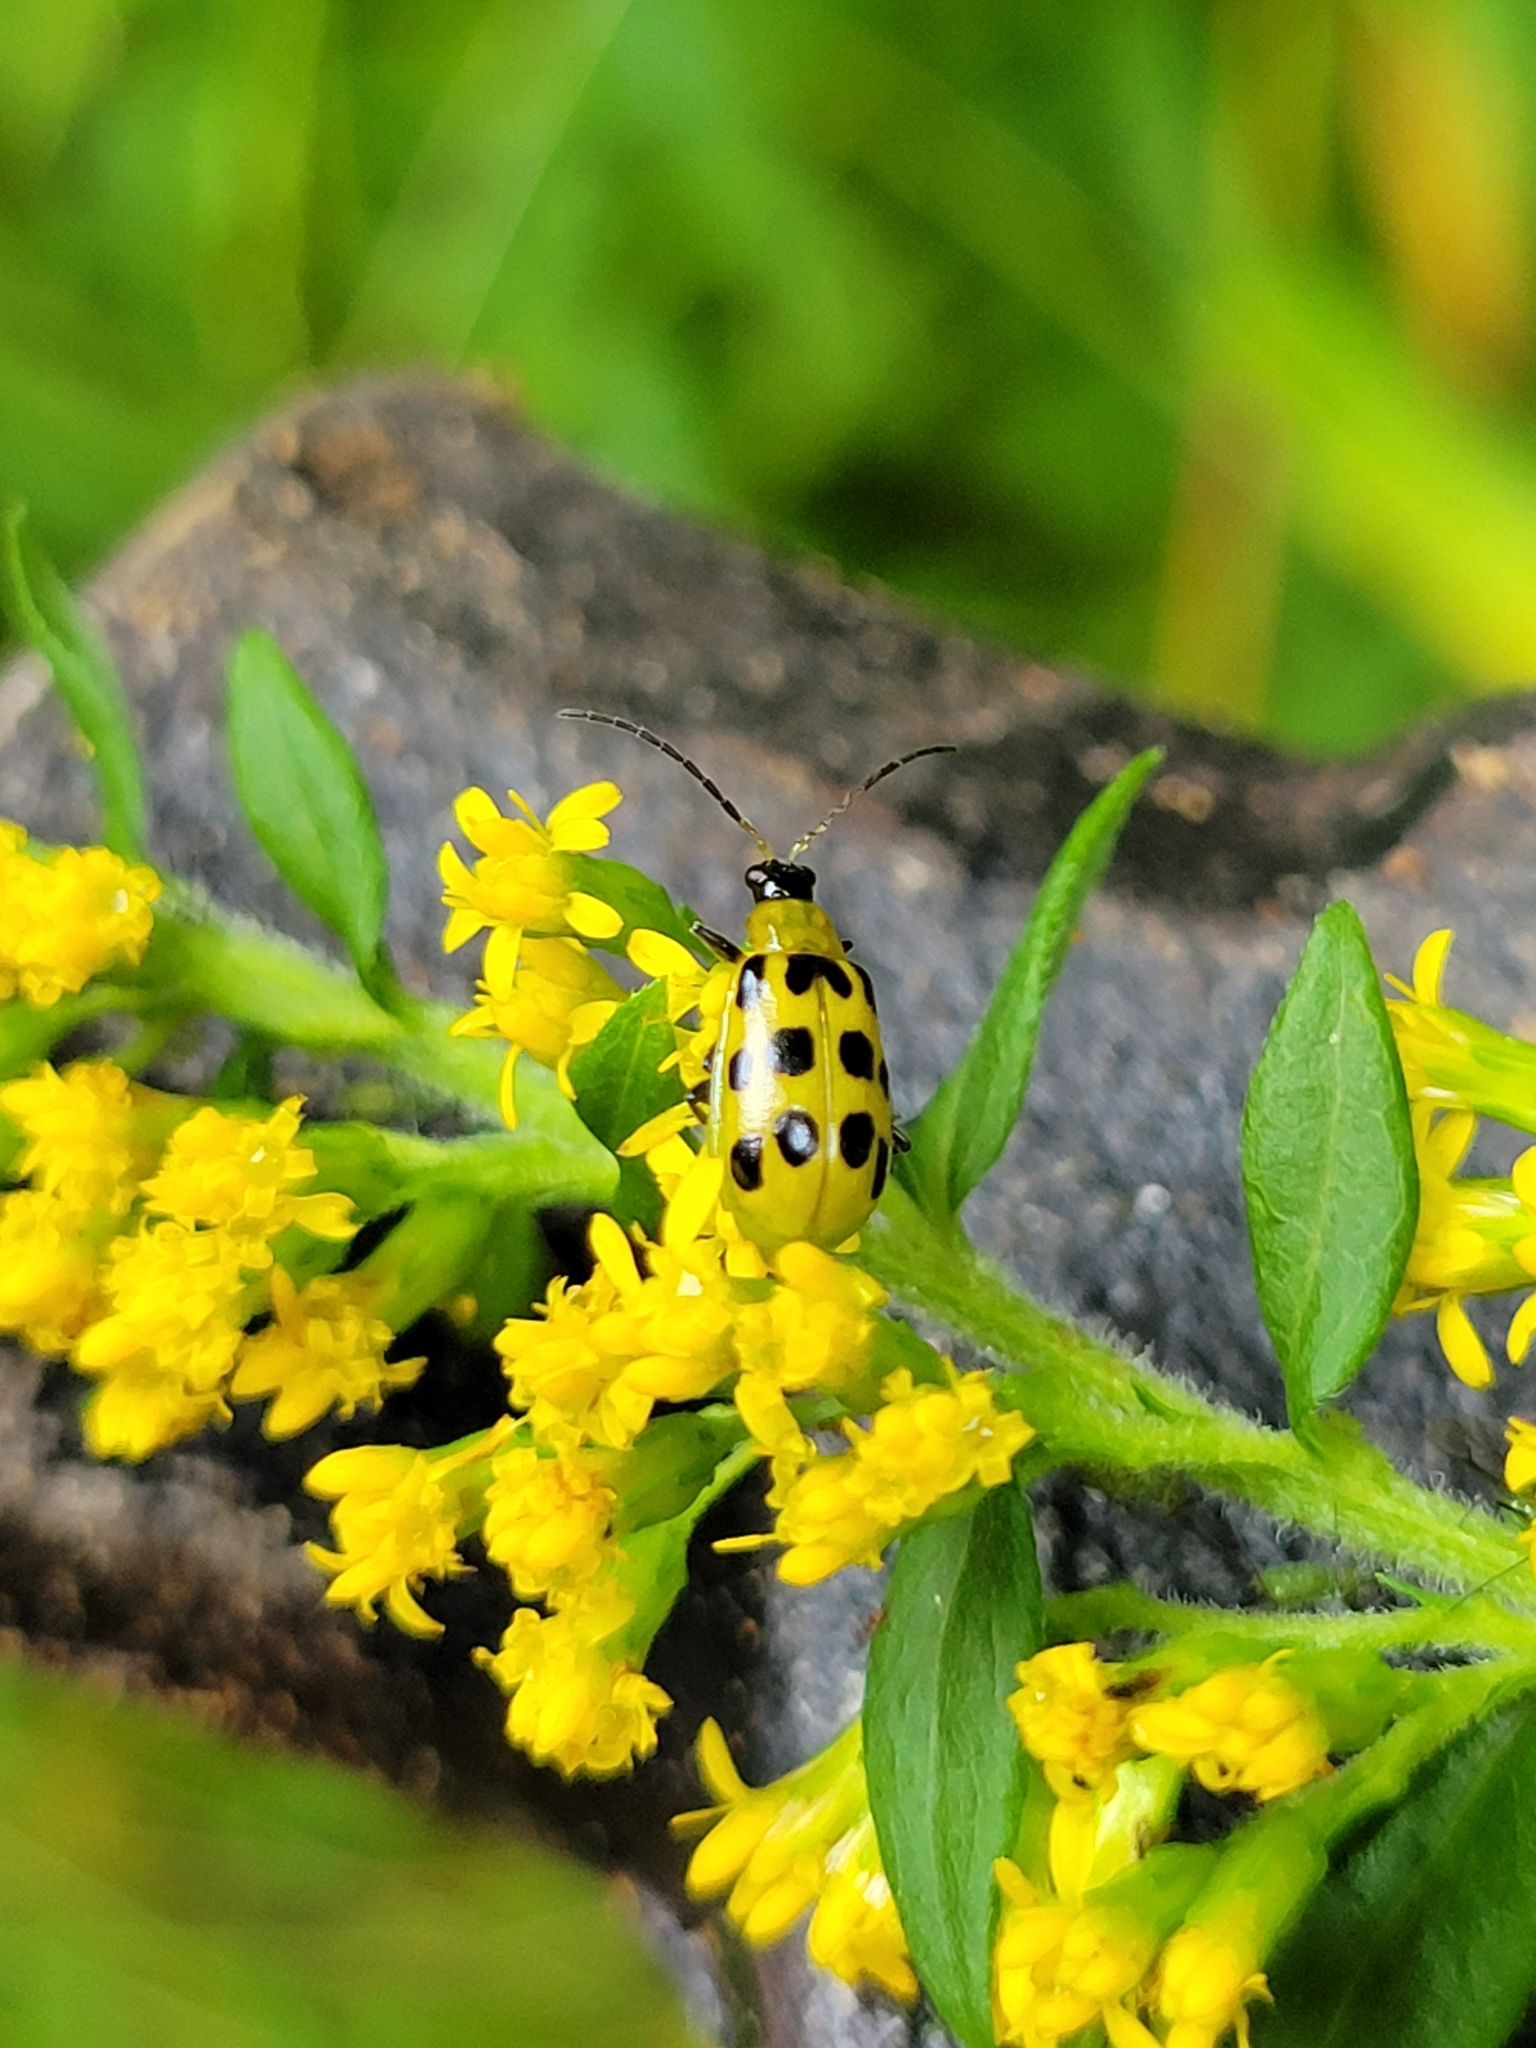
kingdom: Animalia
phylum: Arthropoda
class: Insecta
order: Coleoptera
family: Chrysomelidae
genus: Diabrotica
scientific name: Diabrotica undecimpunctata
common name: Spotted cucumber beetle
